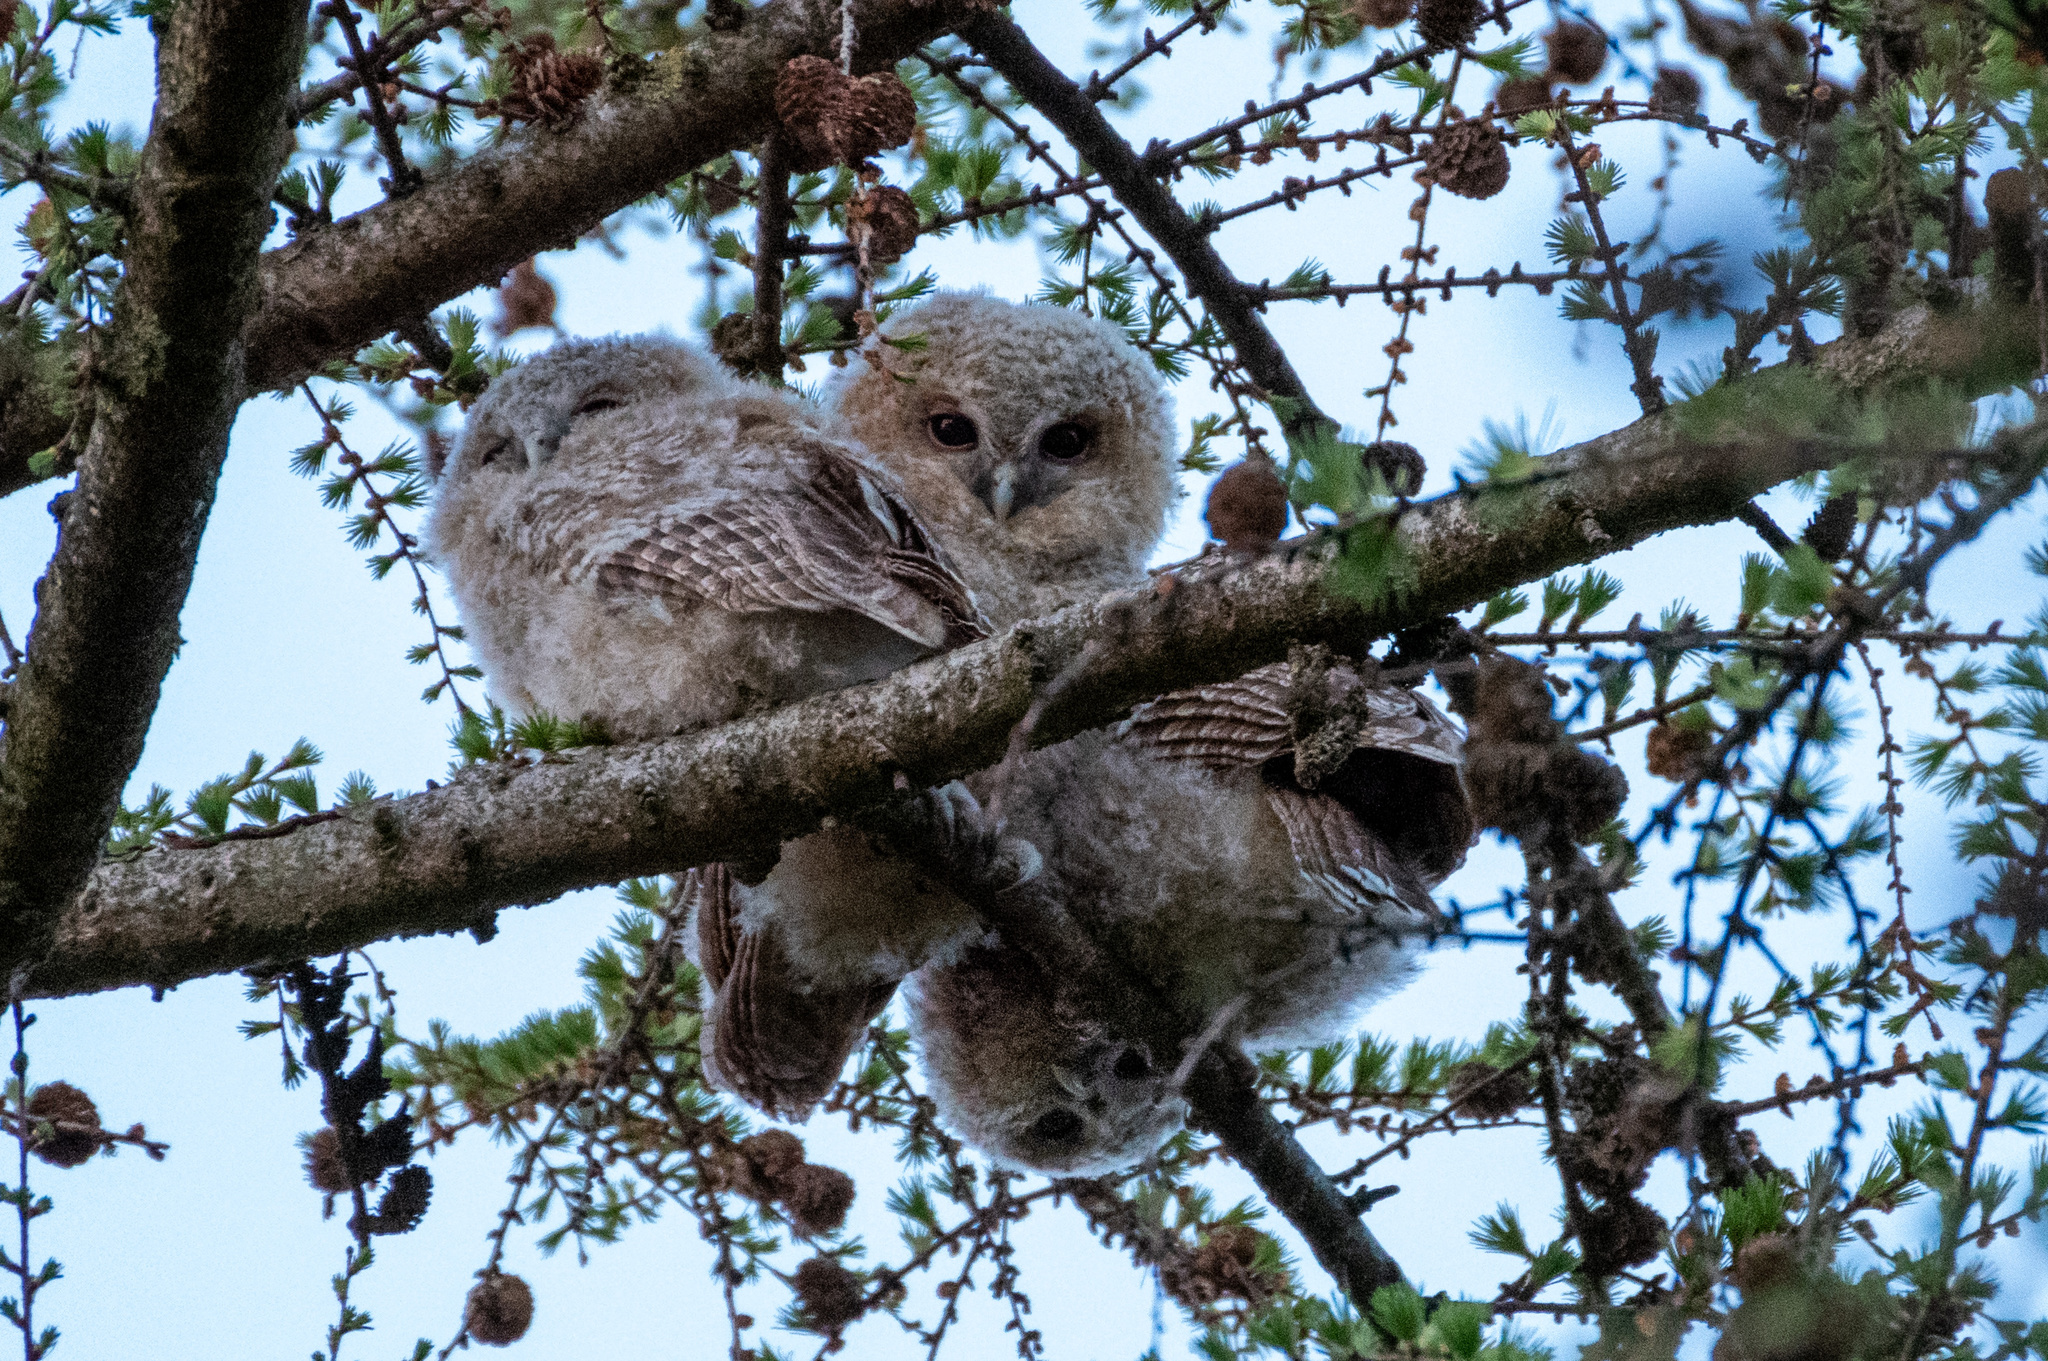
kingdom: Animalia
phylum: Chordata
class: Aves
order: Strigiformes
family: Strigidae
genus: Strix
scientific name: Strix aluco
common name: Tawny owl
